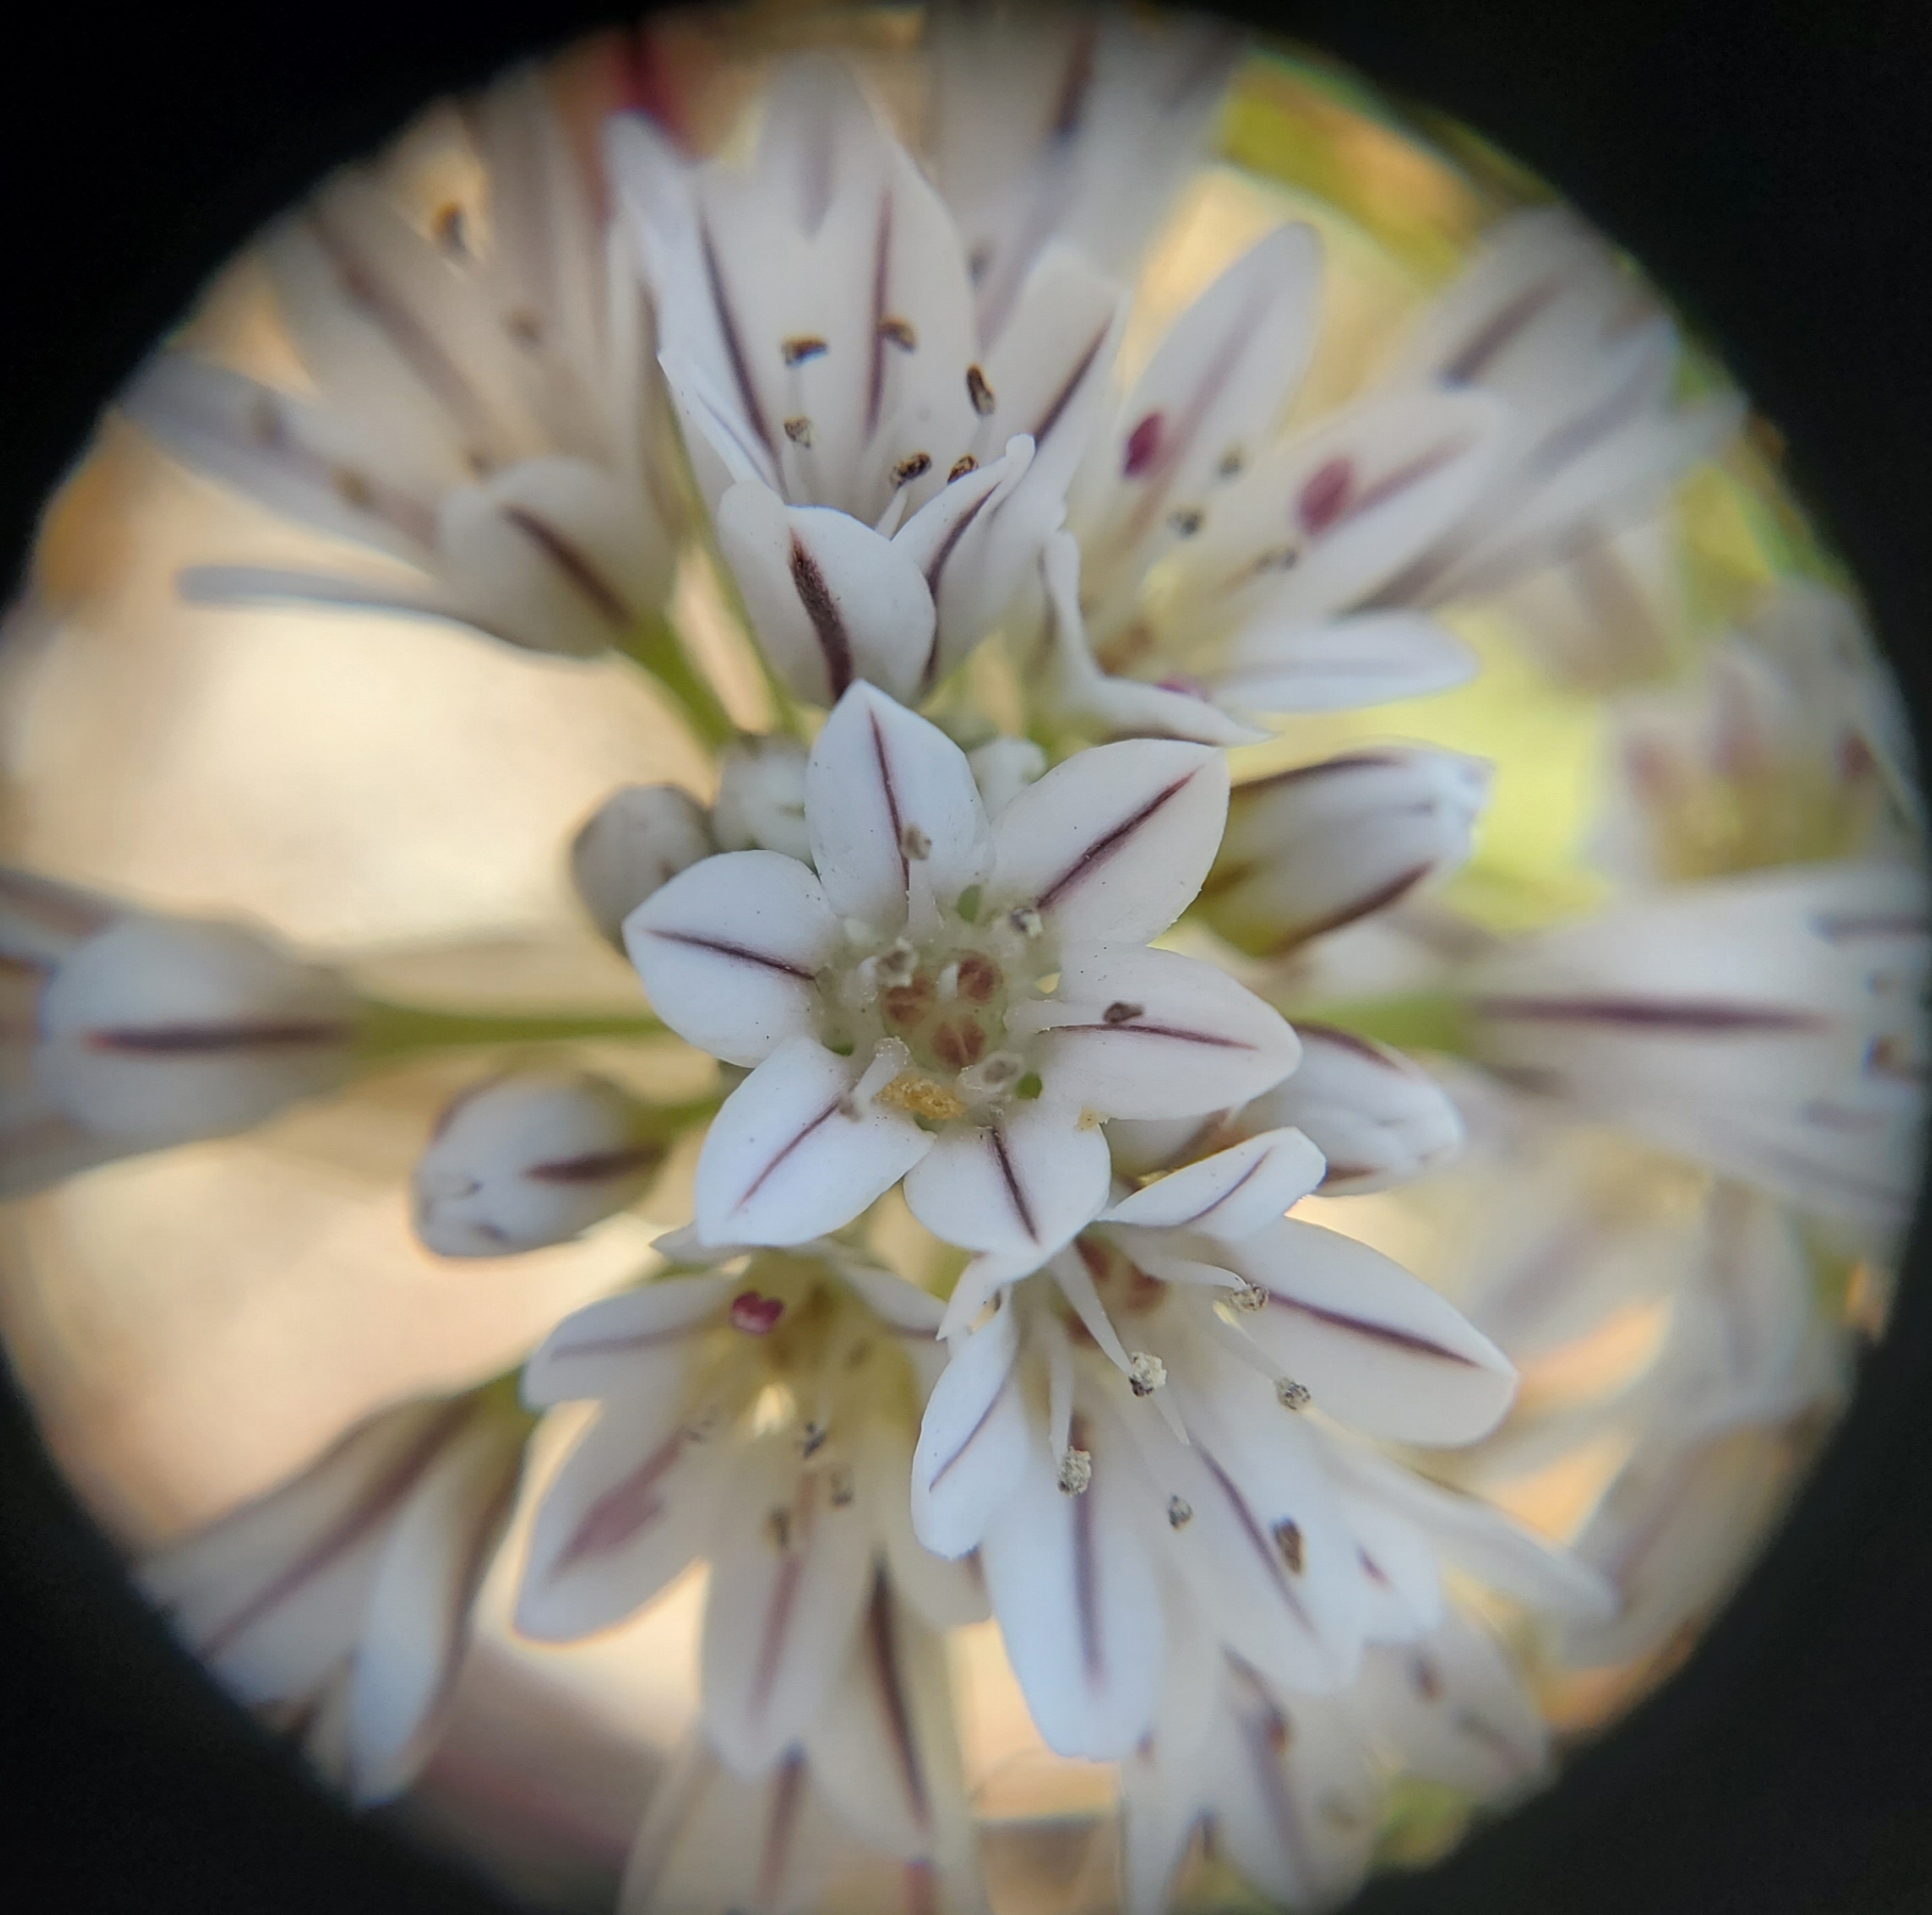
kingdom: Plantae
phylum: Tracheophyta
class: Liliopsida
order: Asparagales
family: Amaryllidaceae
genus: Allium
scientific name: Allium lacunosum
